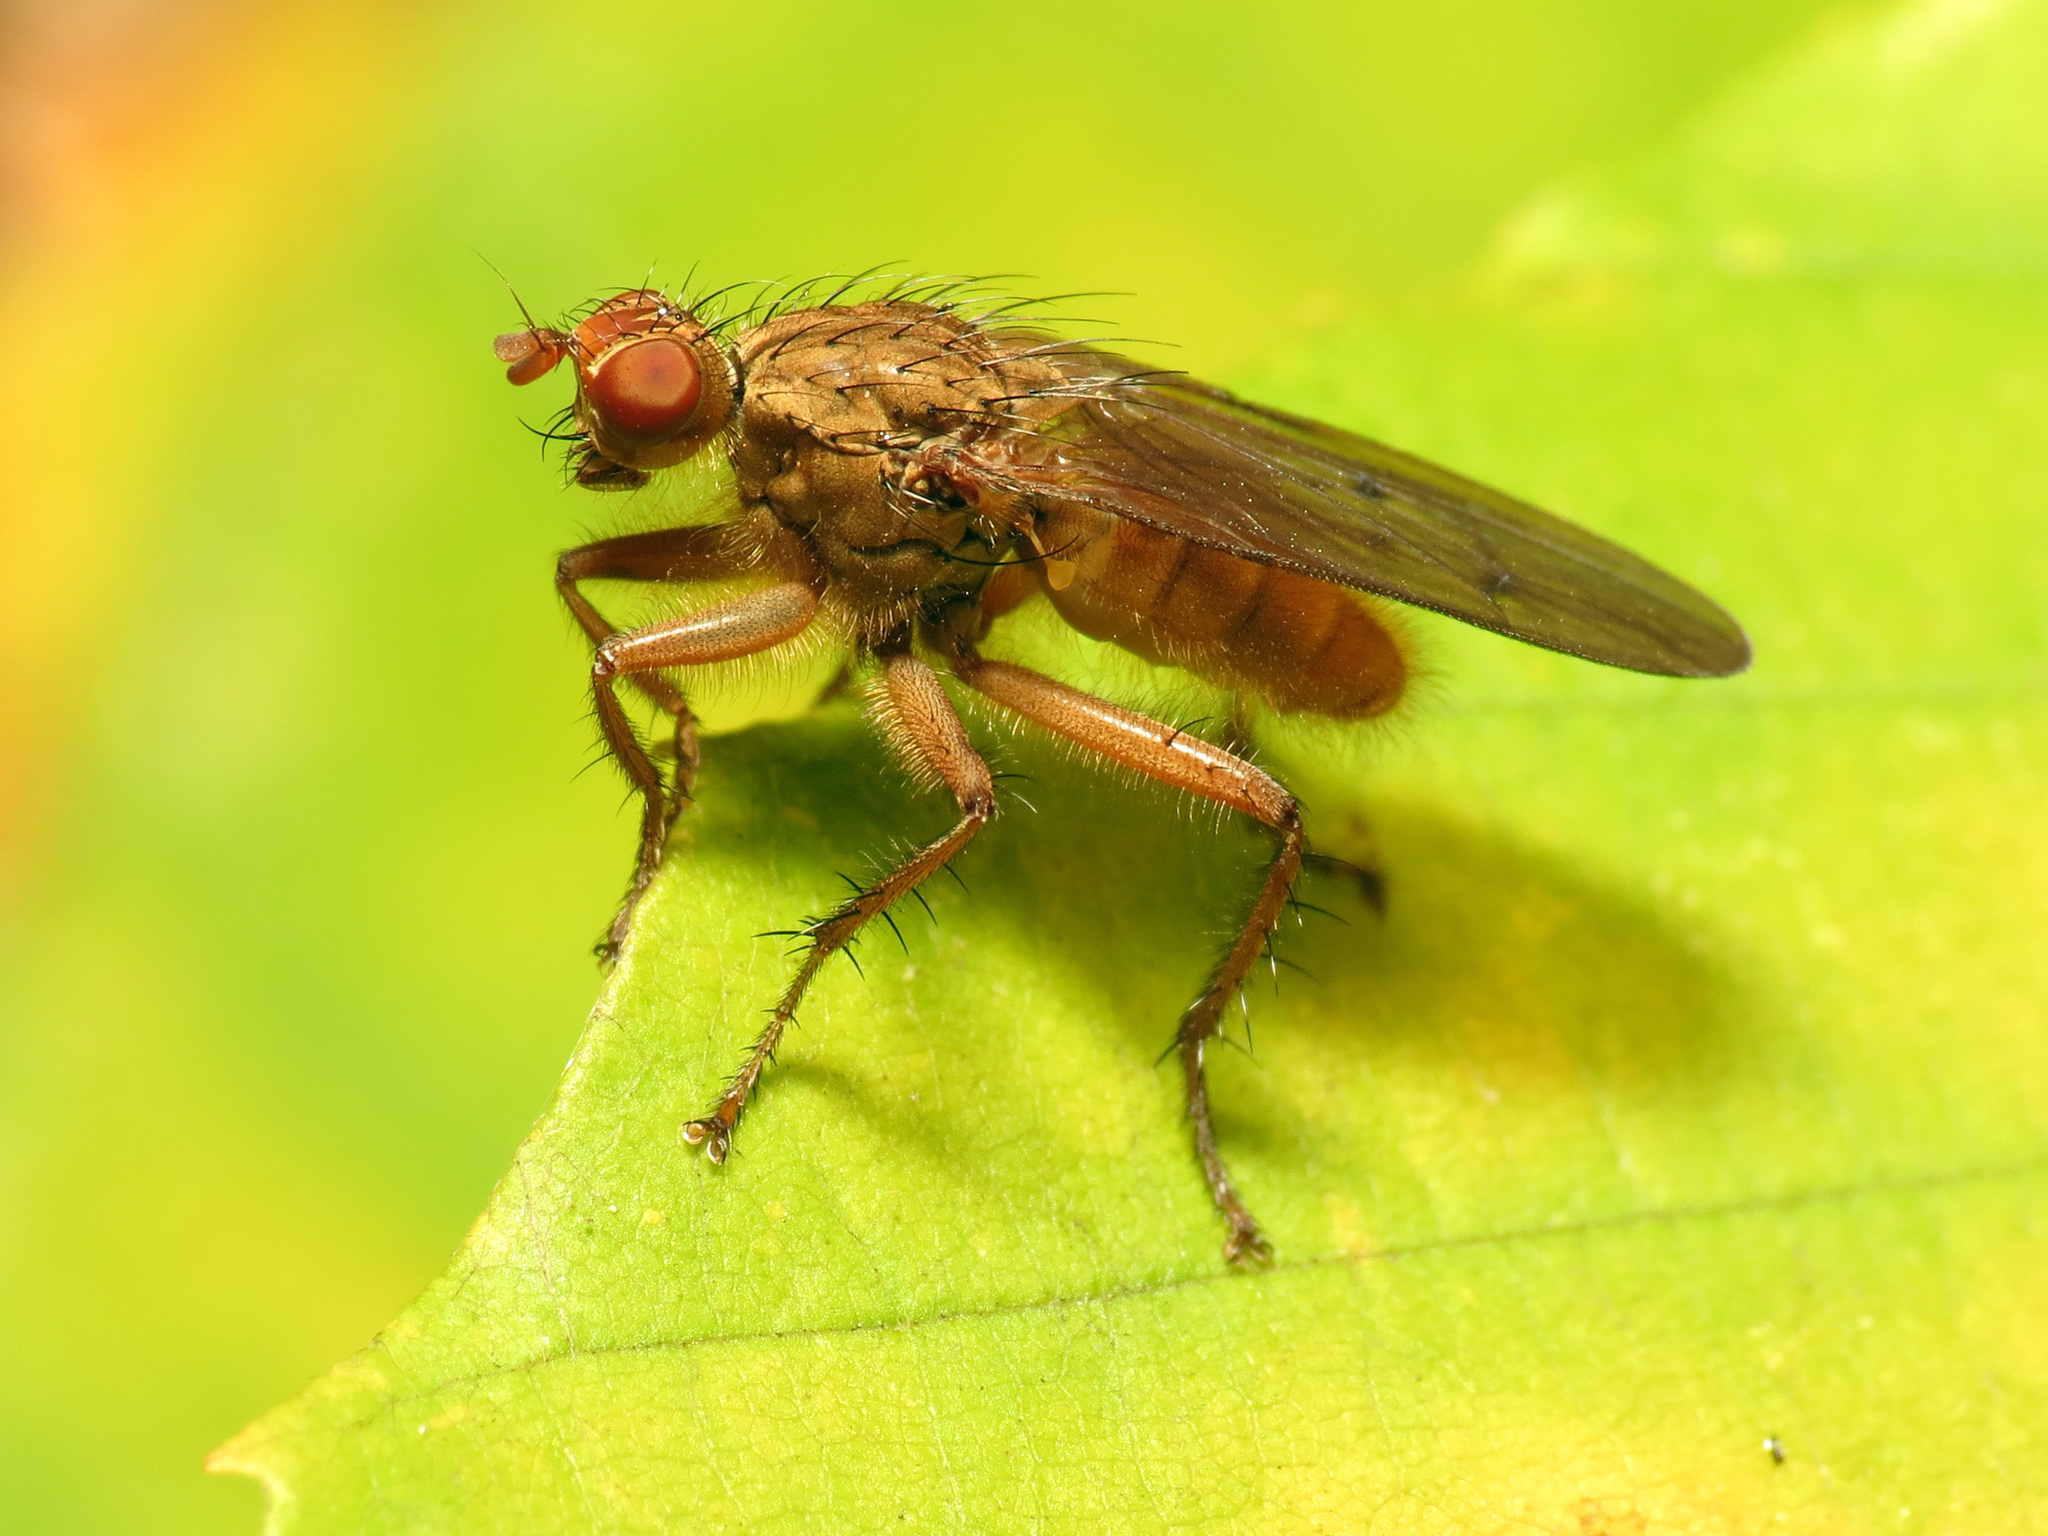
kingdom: Animalia
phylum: Arthropoda
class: Insecta
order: Diptera
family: Scathophagidae
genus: Scathophaga
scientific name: Scathophaga furcata
